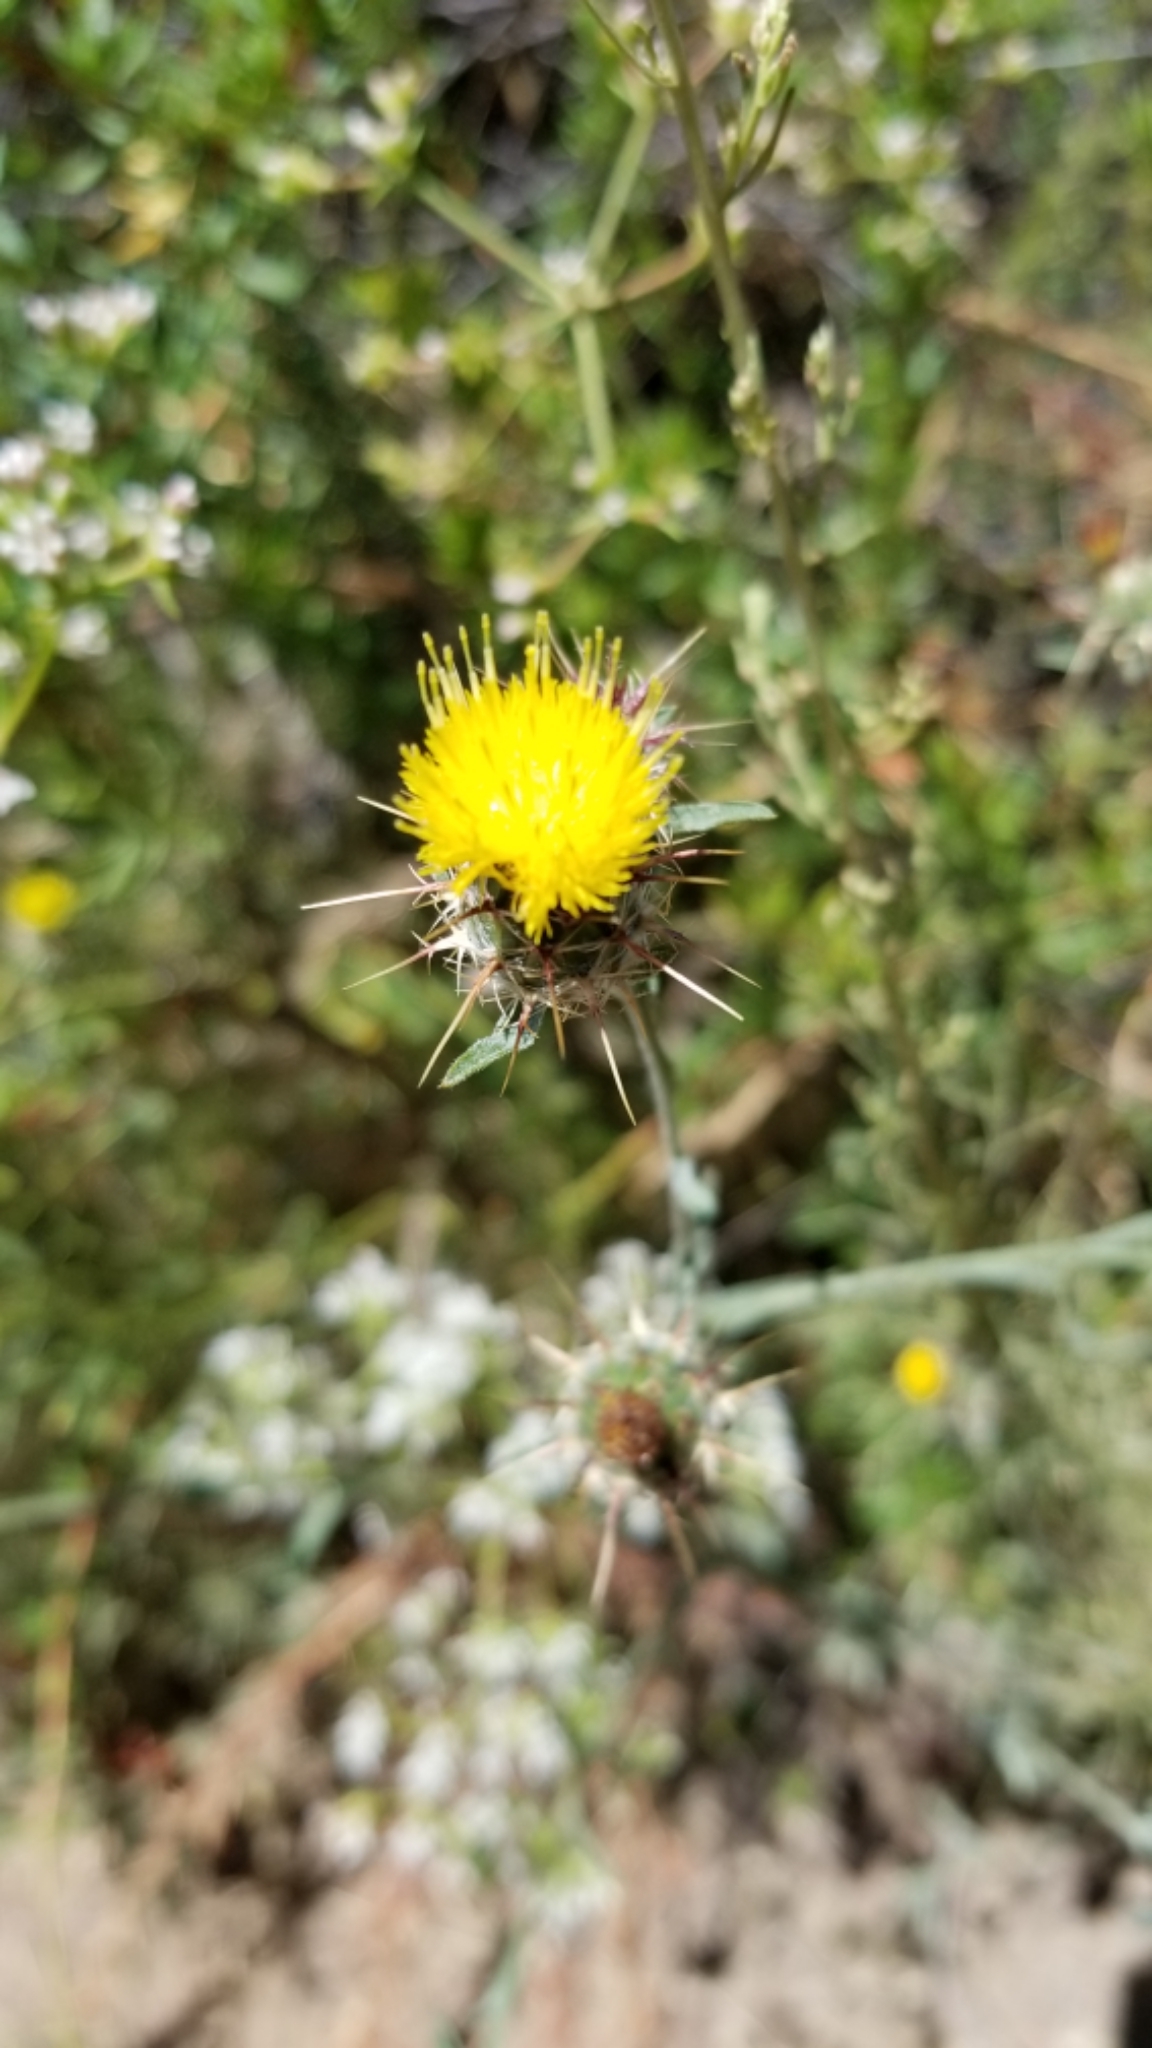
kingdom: Plantae
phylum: Tracheophyta
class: Magnoliopsida
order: Asterales
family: Asteraceae
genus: Centaurea
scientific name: Centaurea melitensis
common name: Maltese star-thistle
